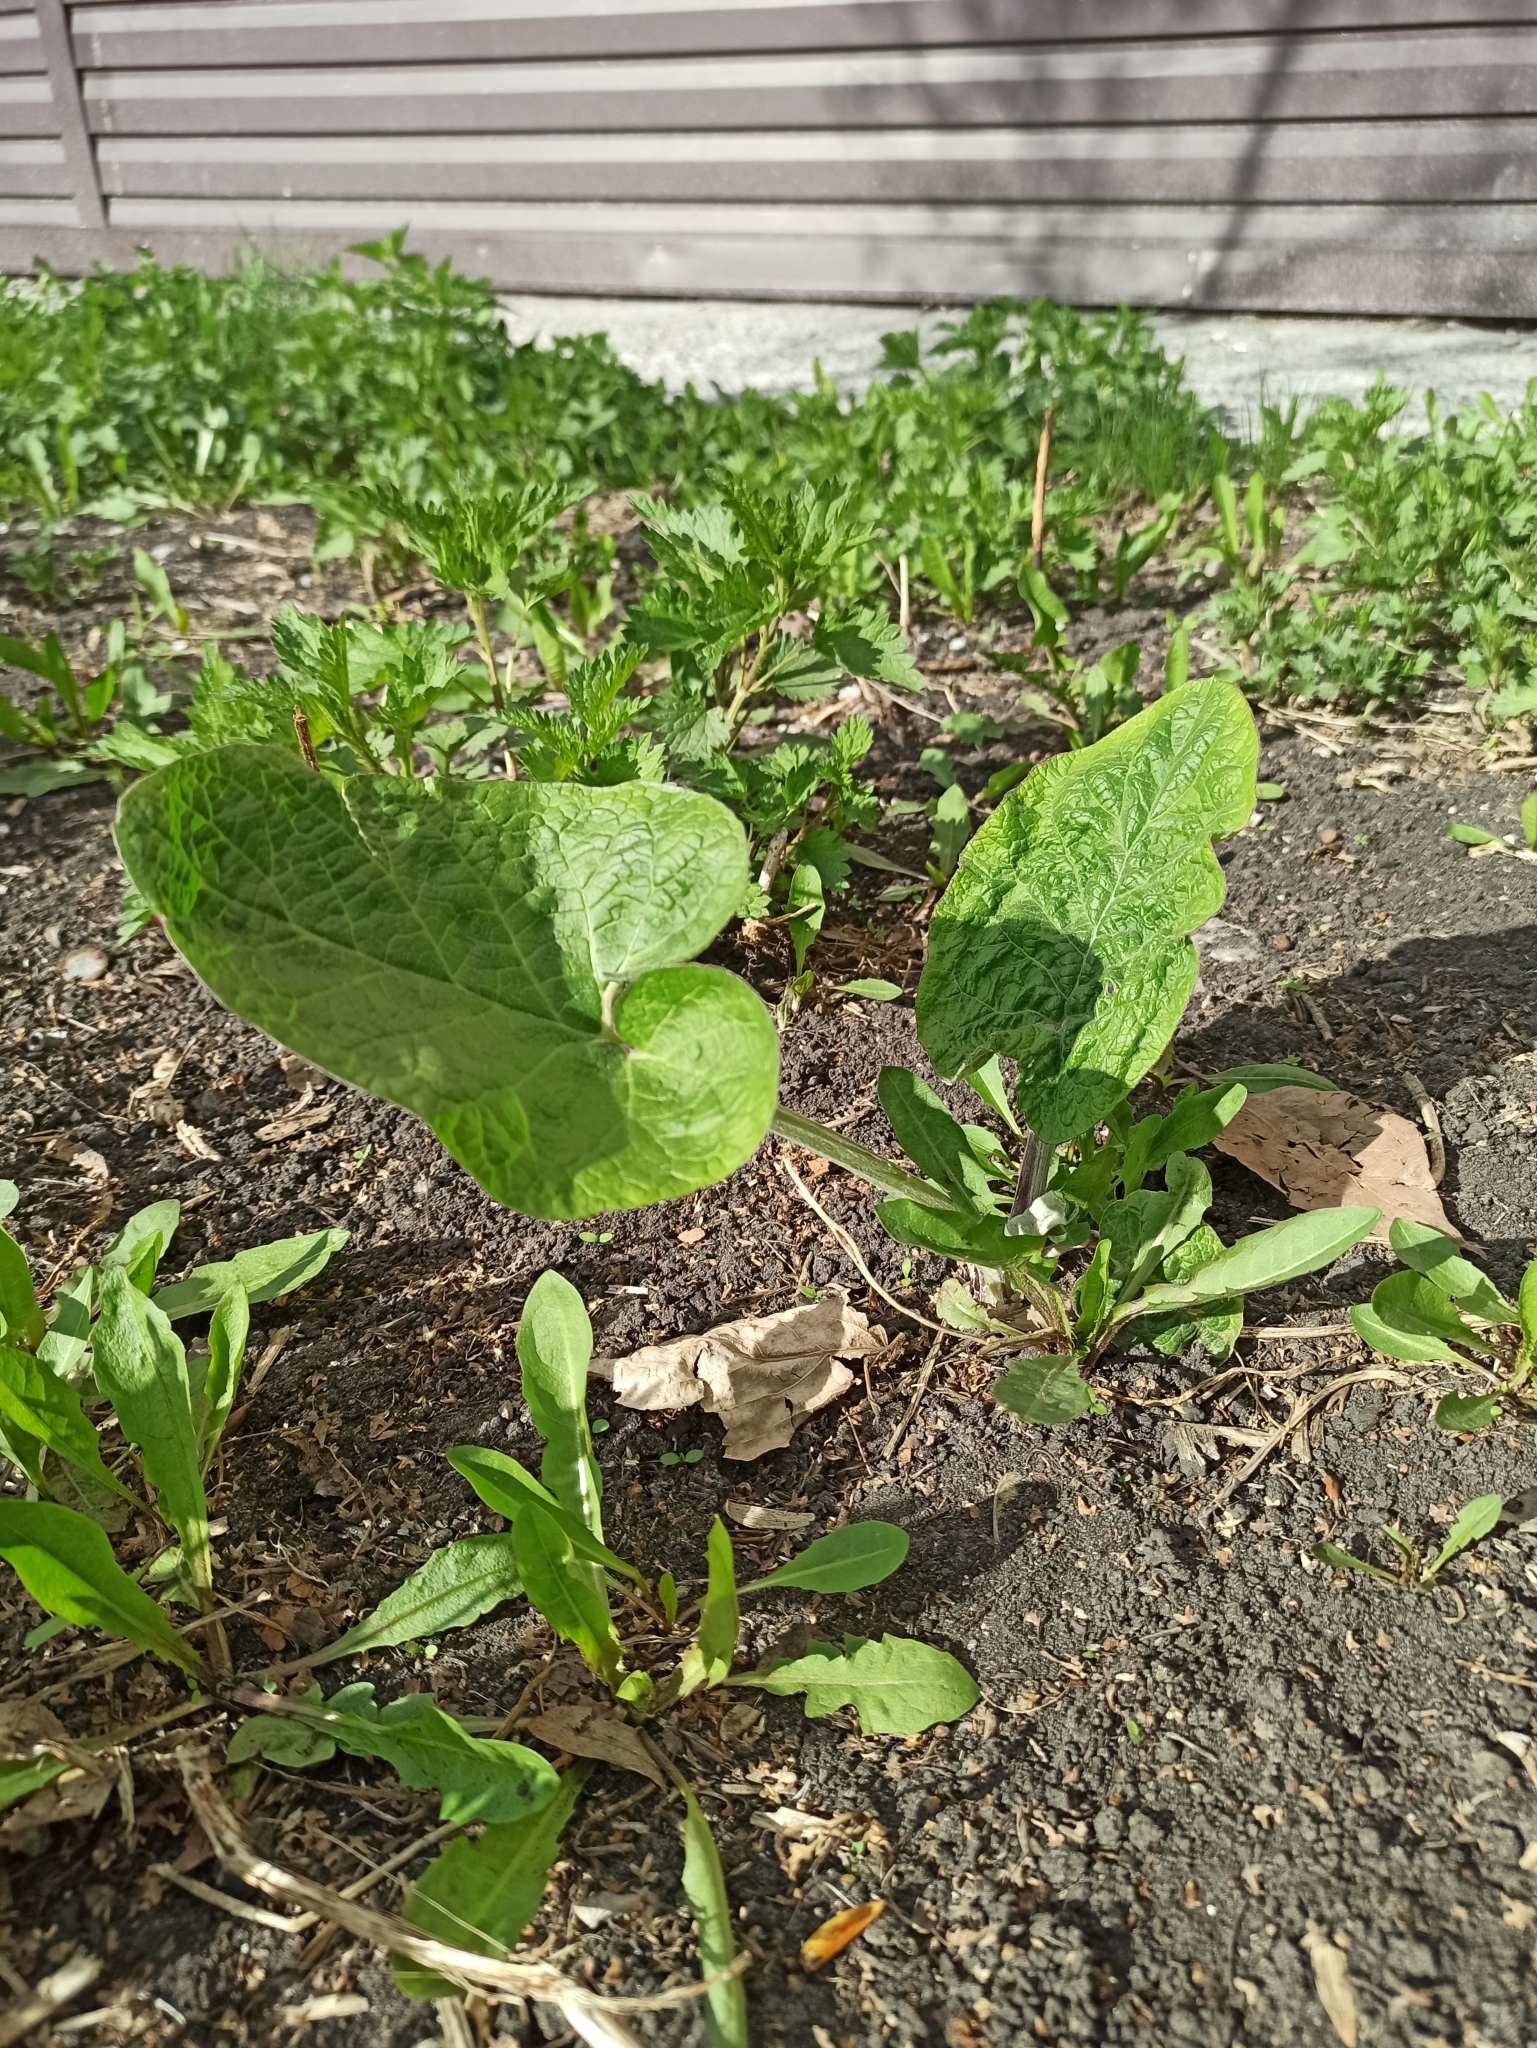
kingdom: Plantae
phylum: Tracheophyta
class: Magnoliopsida
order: Asterales
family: Asteraceae
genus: Arctium
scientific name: Arctium tomentosum
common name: Woolly burdock
